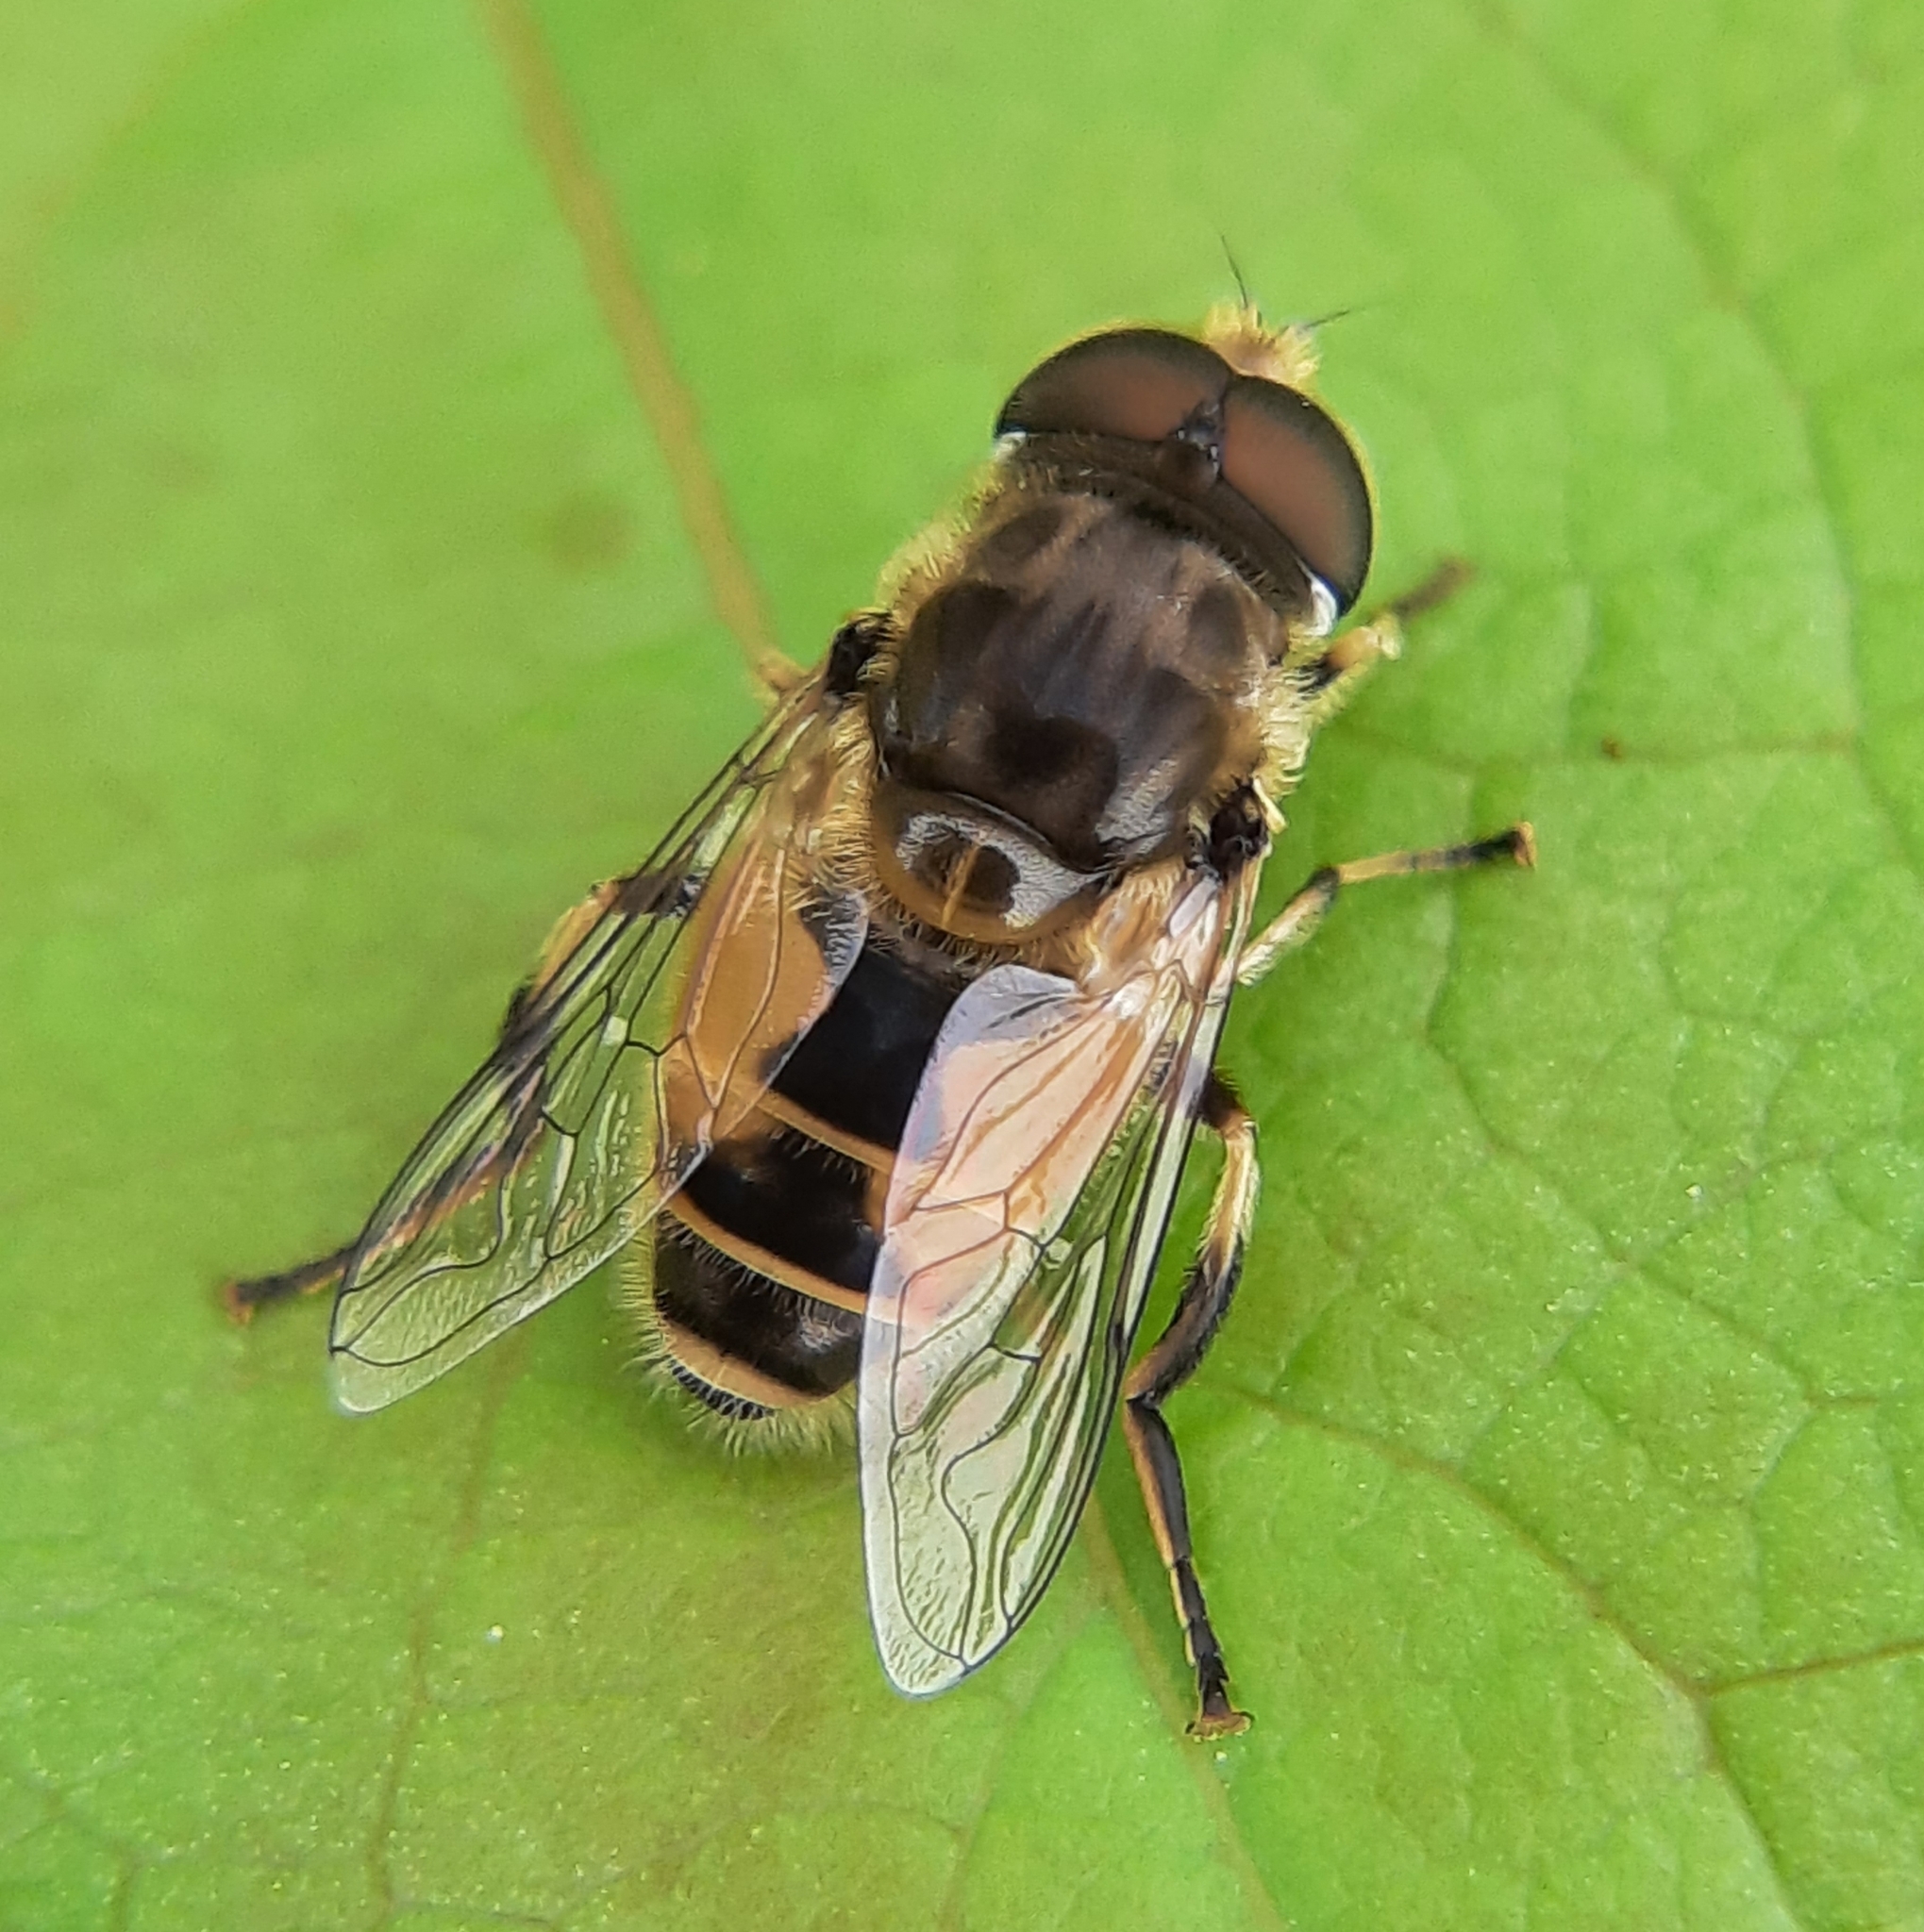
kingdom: Animalia
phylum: Arthropoda
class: Insecta
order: Diptera
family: Syrphidae
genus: Eristalis
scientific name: Eristalis arbustorum
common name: Hover fly
